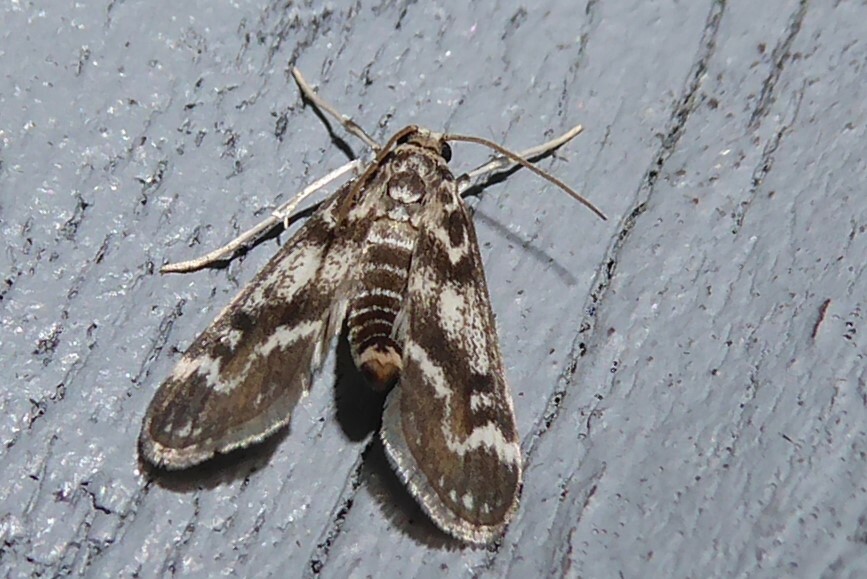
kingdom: Animalia
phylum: Arthropoda
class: Insecta
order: Lepidoptera
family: Crambidae
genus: Hygraula
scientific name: Hygraula nitens
